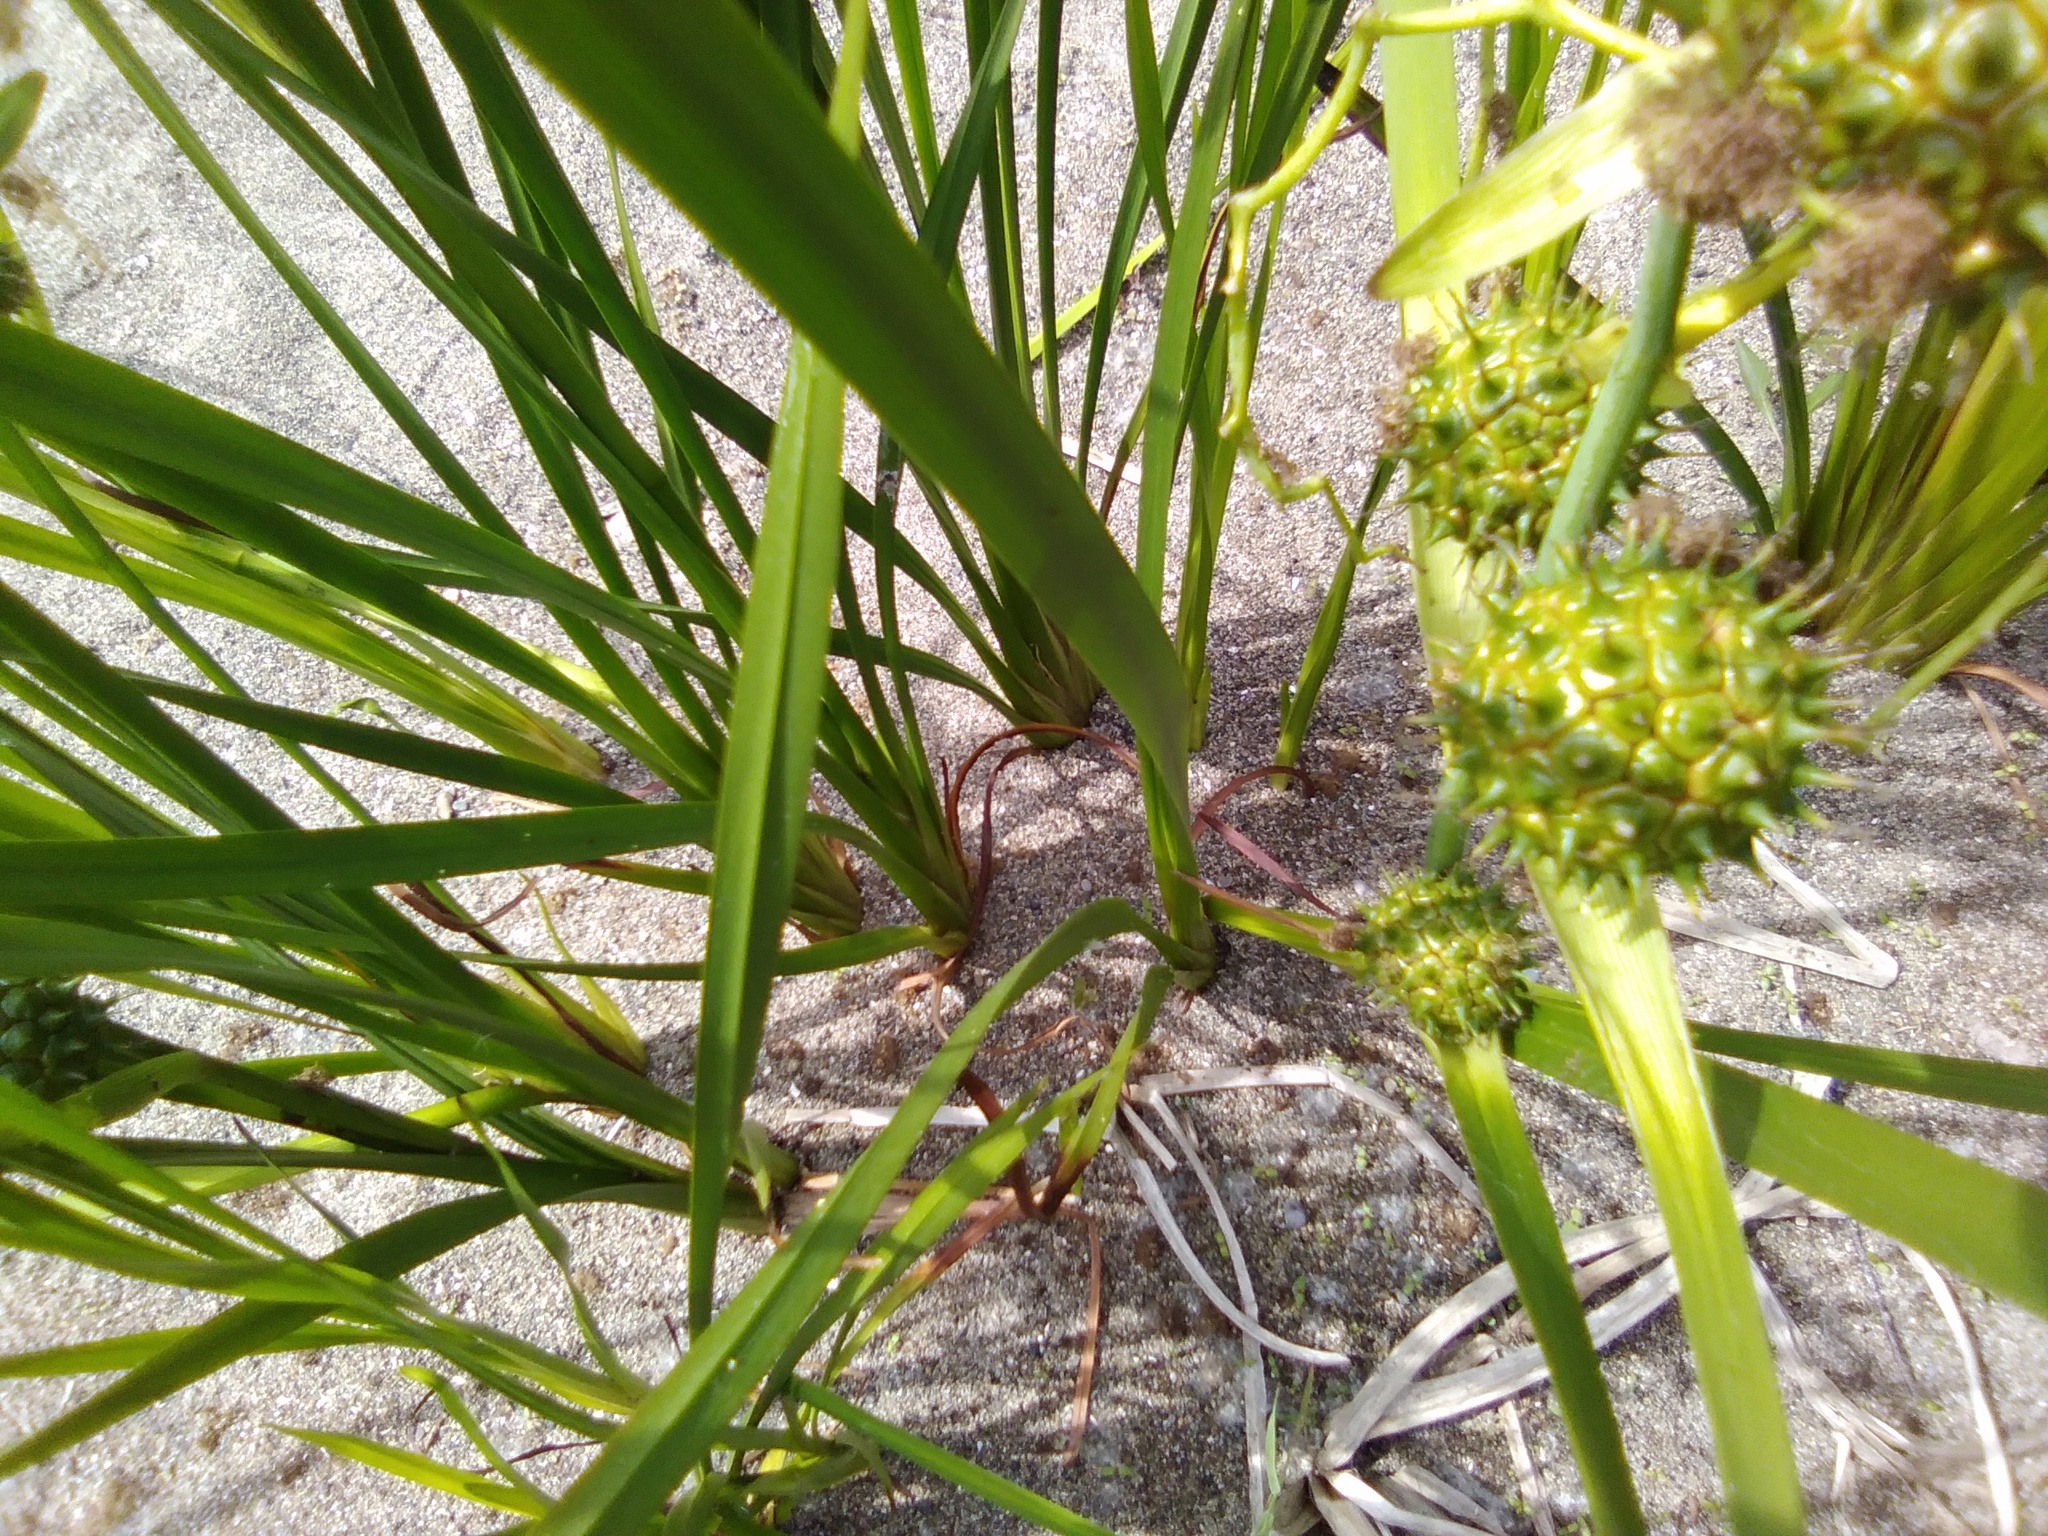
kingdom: Plantae
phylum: Tracheophyta
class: Liliopsida
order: Poales
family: Typhaceae
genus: Sparganium
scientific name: Sparganium eurycarpum
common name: Broad-fruited burreed
